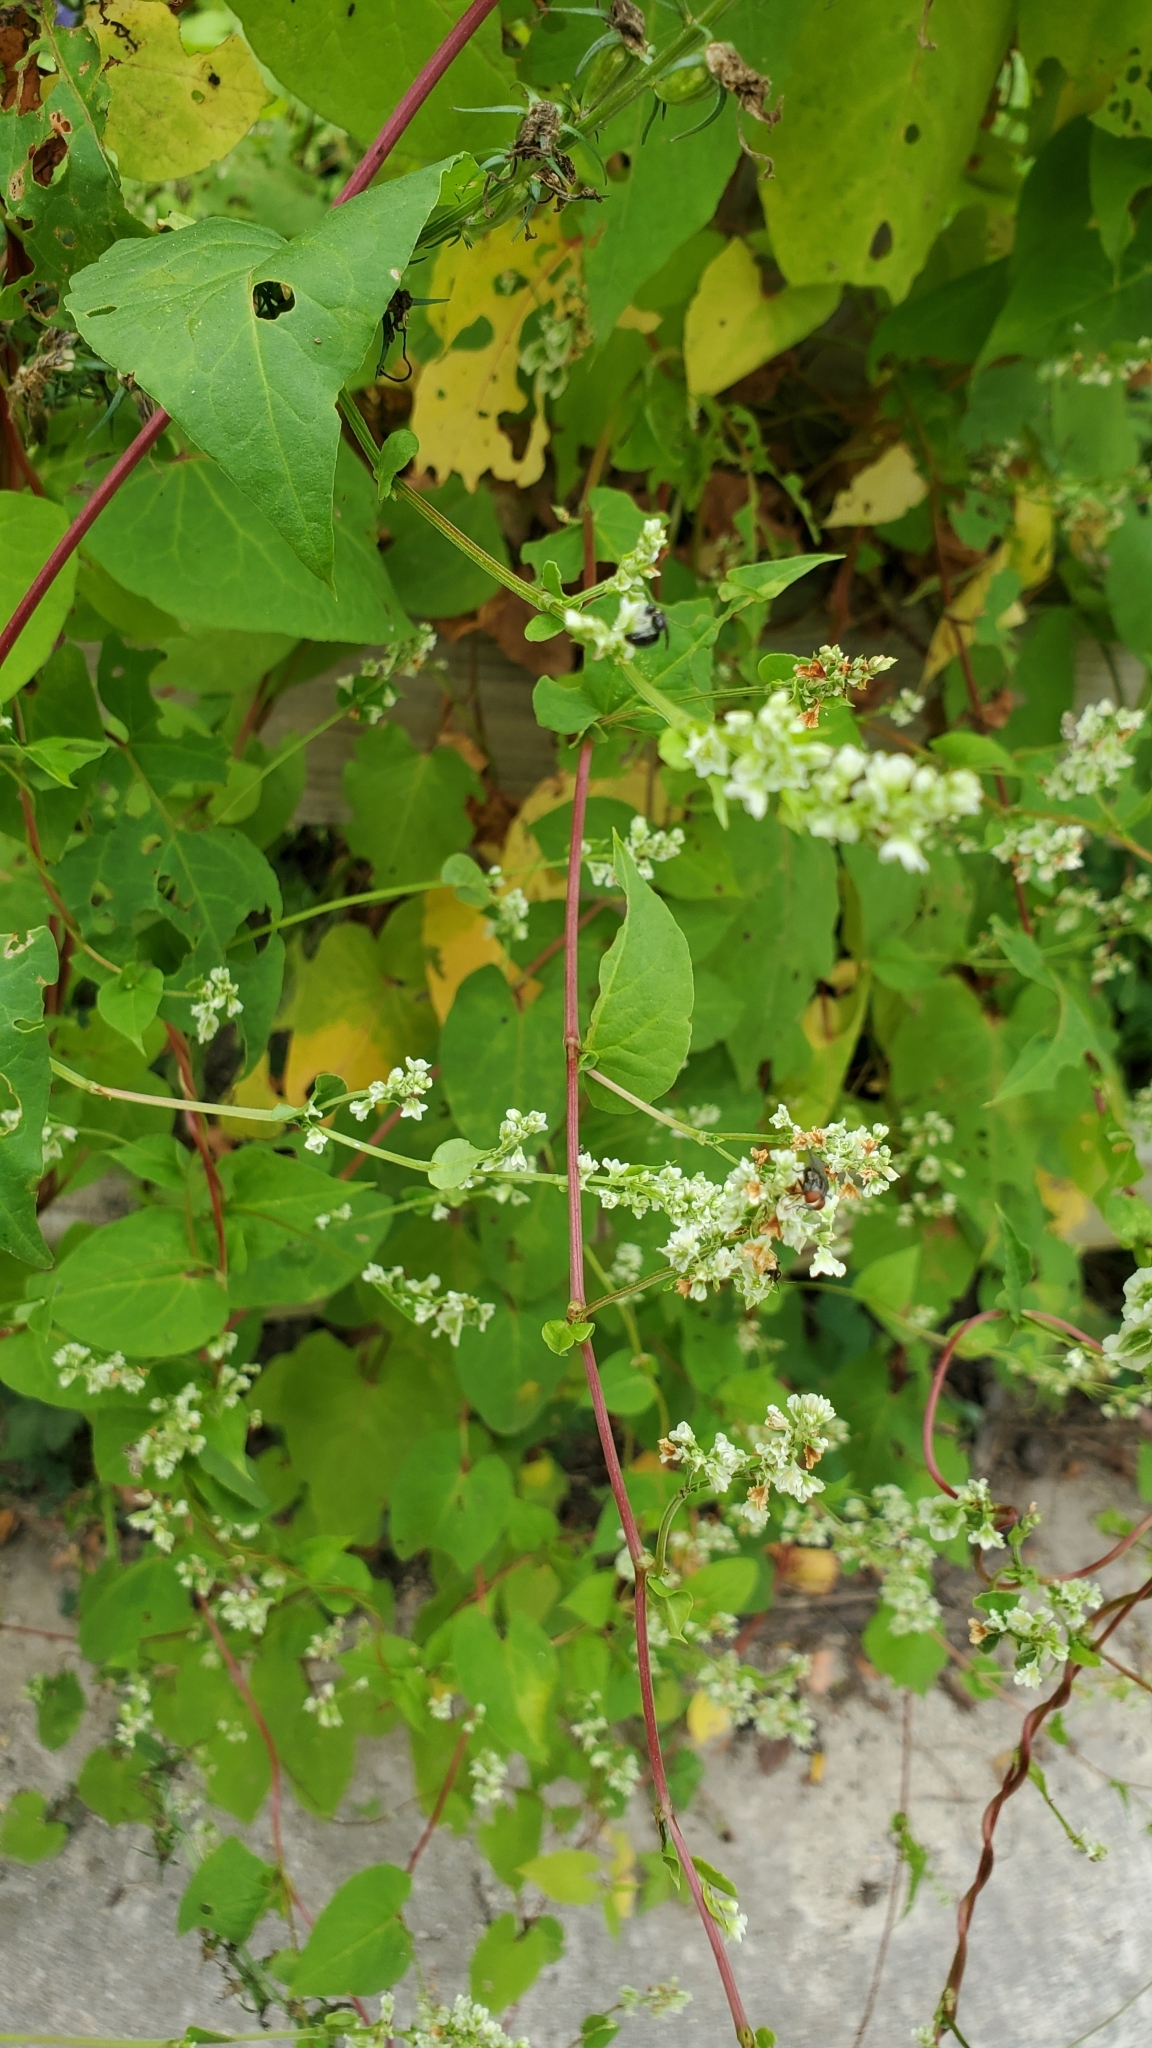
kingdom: Plantae
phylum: Tracheophyta
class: Magnoliopsida
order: Caryophyllales
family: Polygonaceae
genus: Fallopia
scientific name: Fallopia scandens
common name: Climbing false buckwheat
